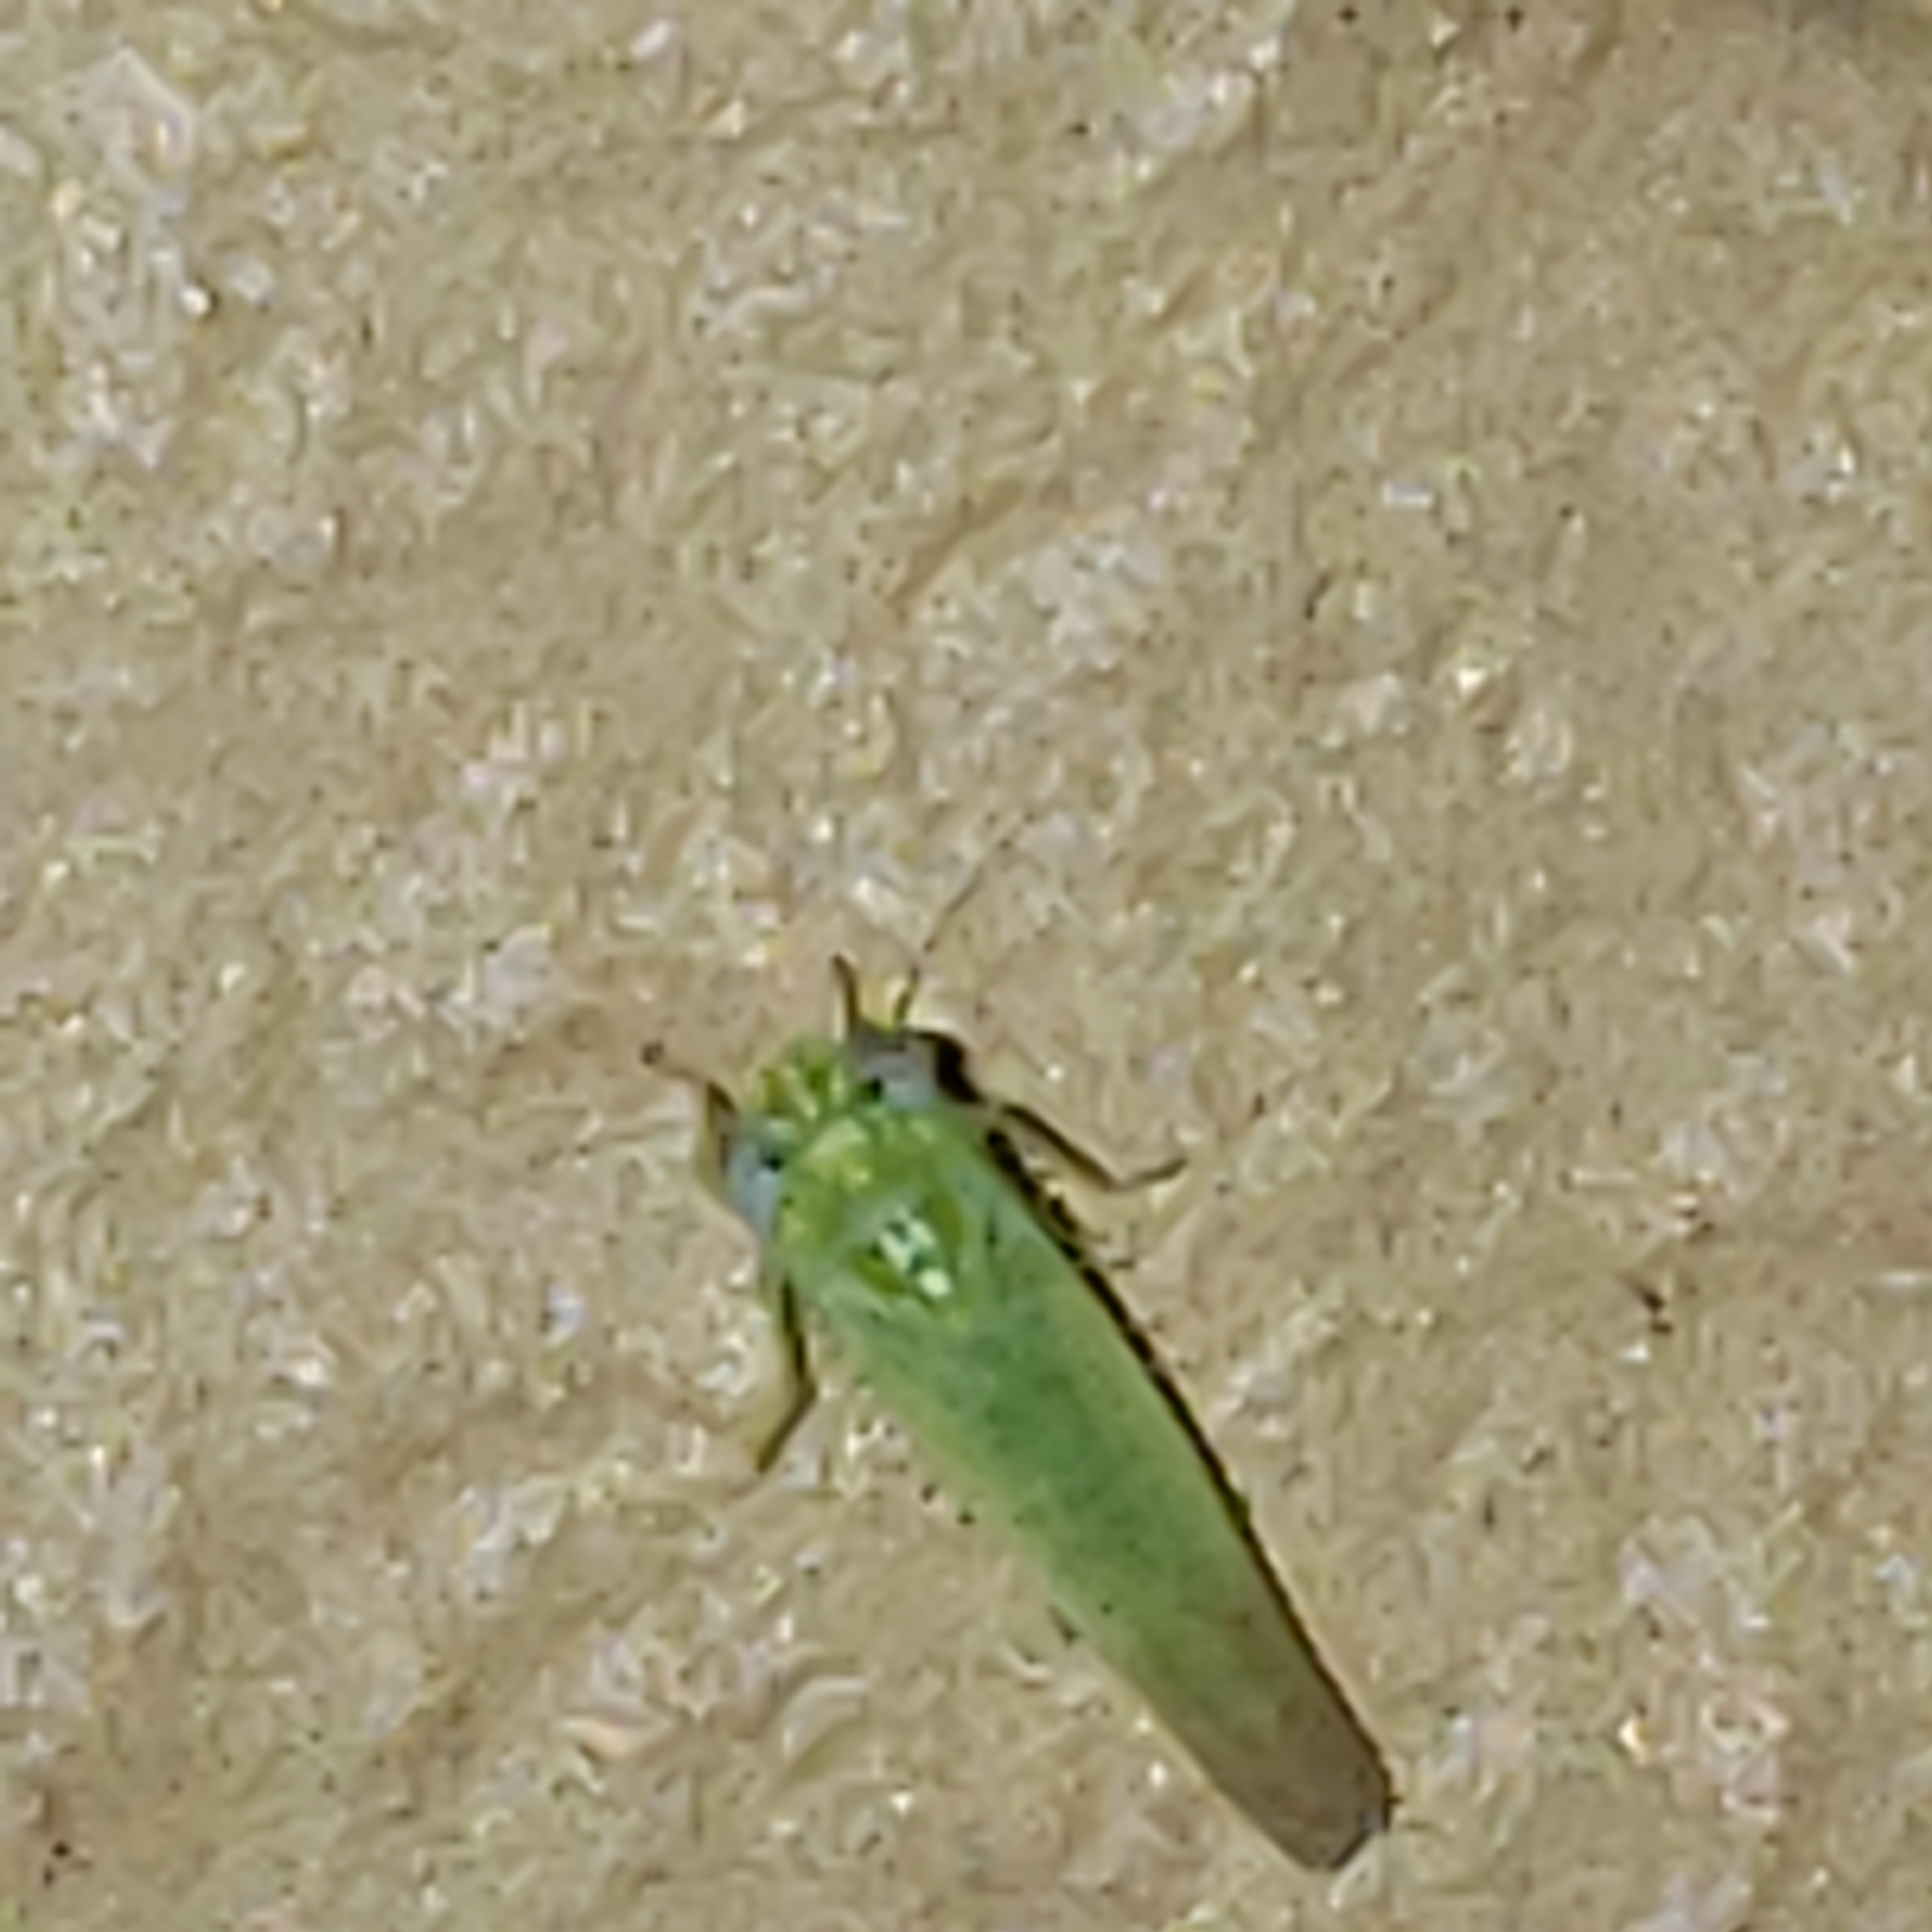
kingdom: Animalia
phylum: Arthropoda
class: Insecta
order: Hemiptera
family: Cicadellidae
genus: Empoasca
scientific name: Empoasca fabae
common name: Potato leafhopper
